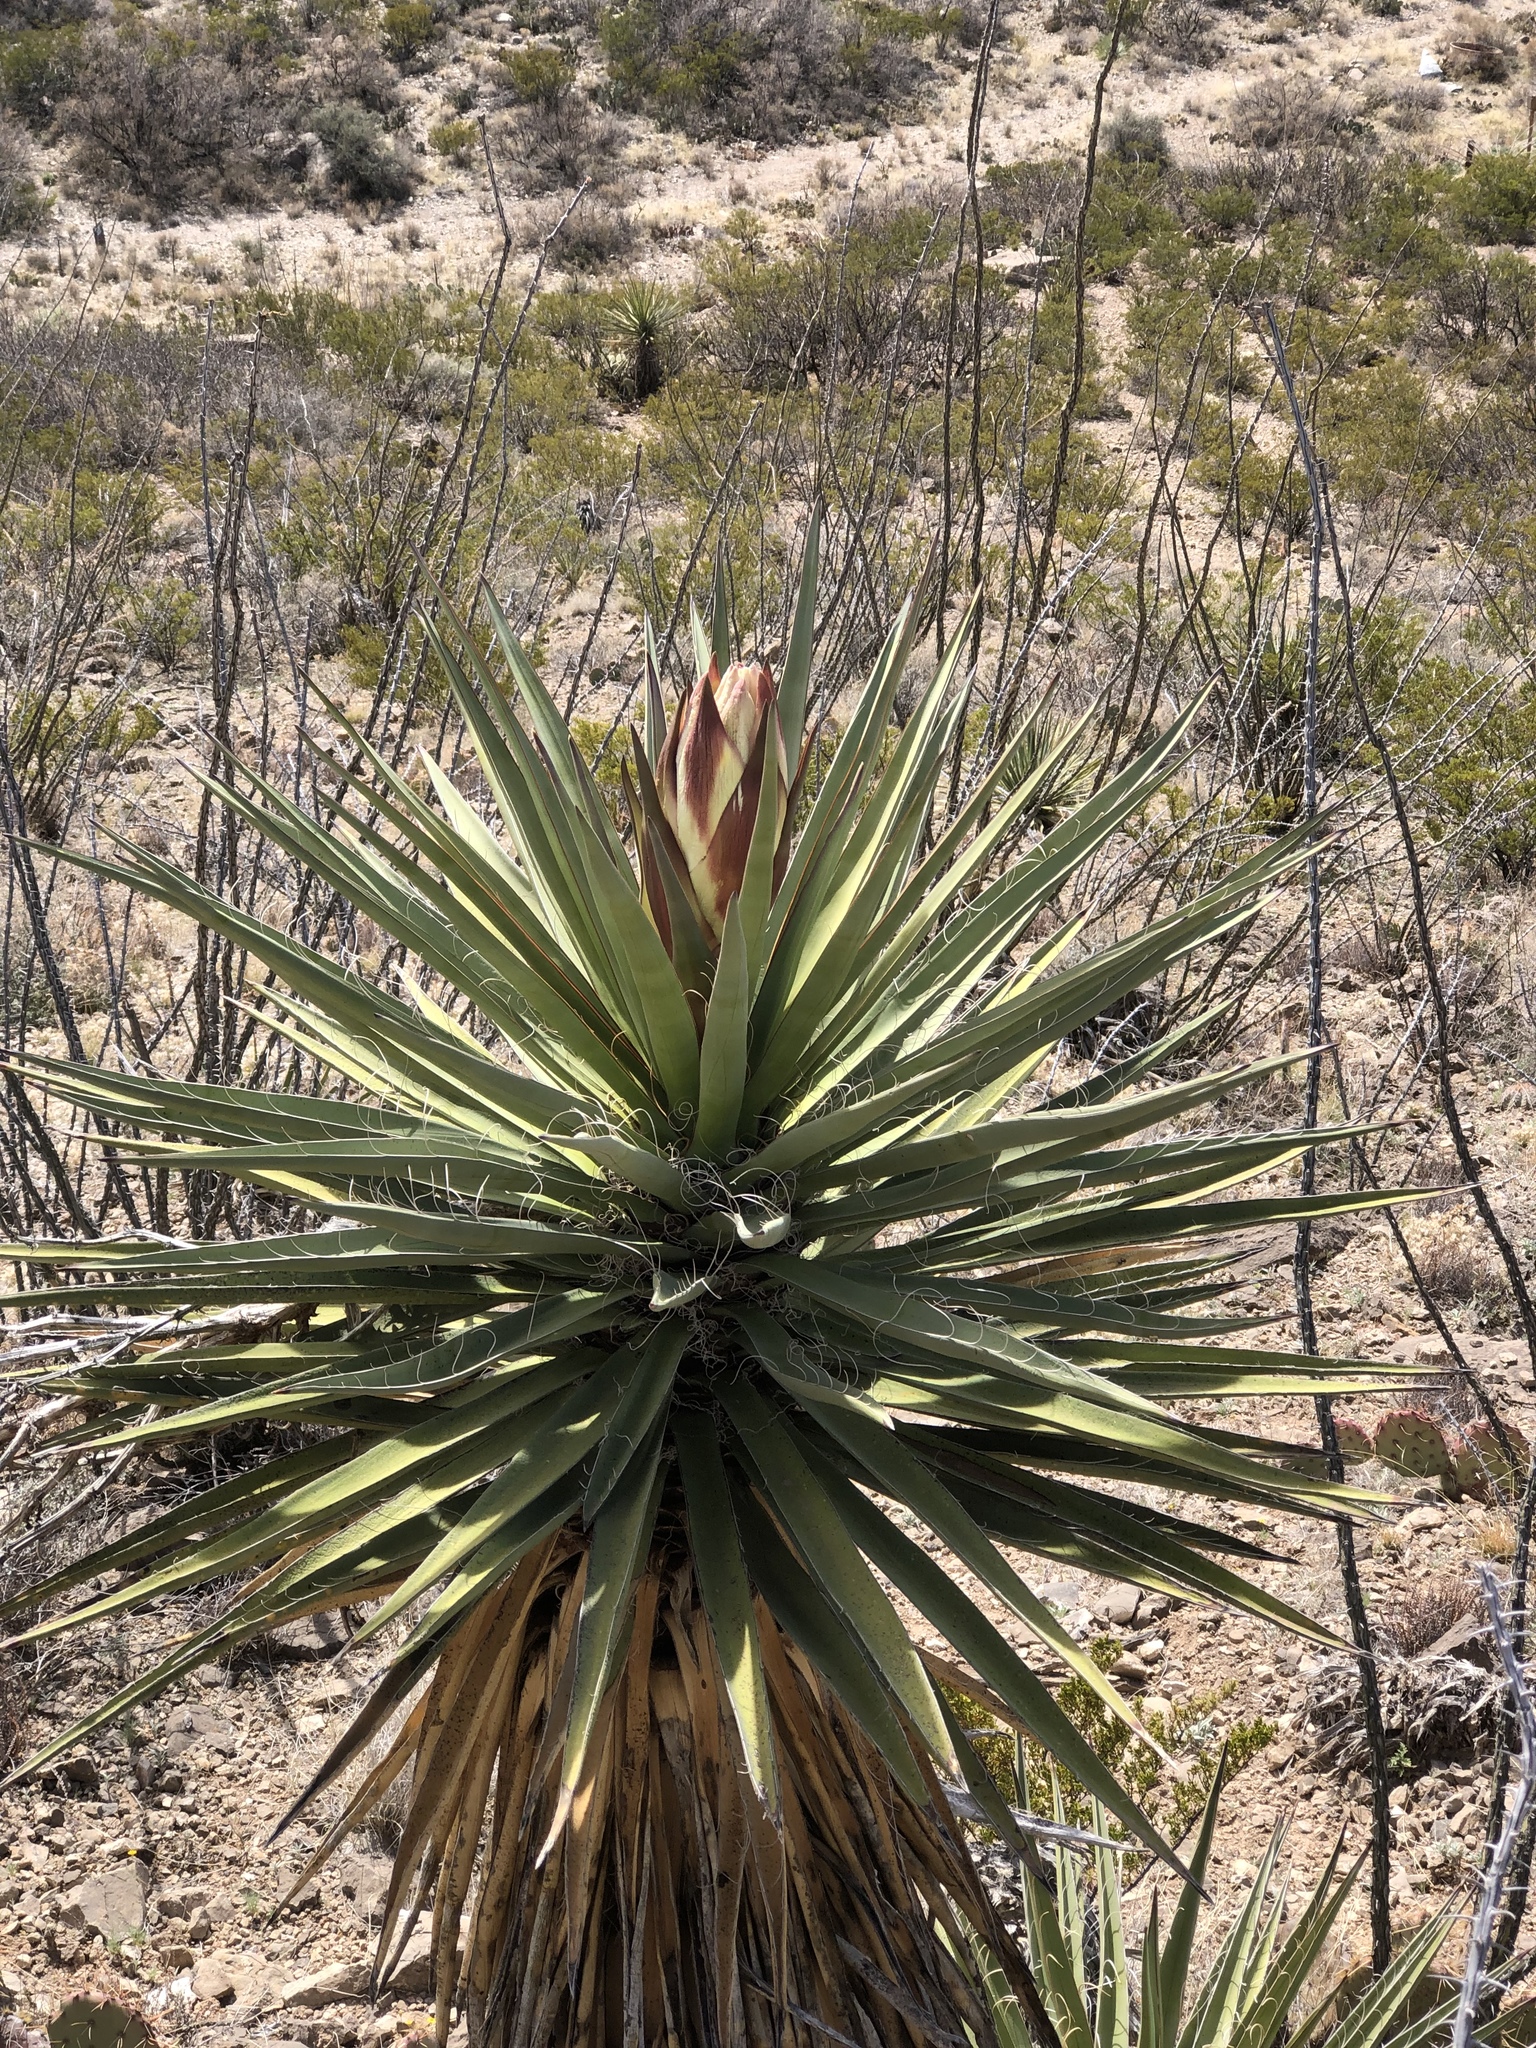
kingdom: Plantae
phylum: Tracheophyta
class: Liliopsida
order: Asparagales
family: Asparagaceae
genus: Yucca
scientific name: Yucca treculiana
